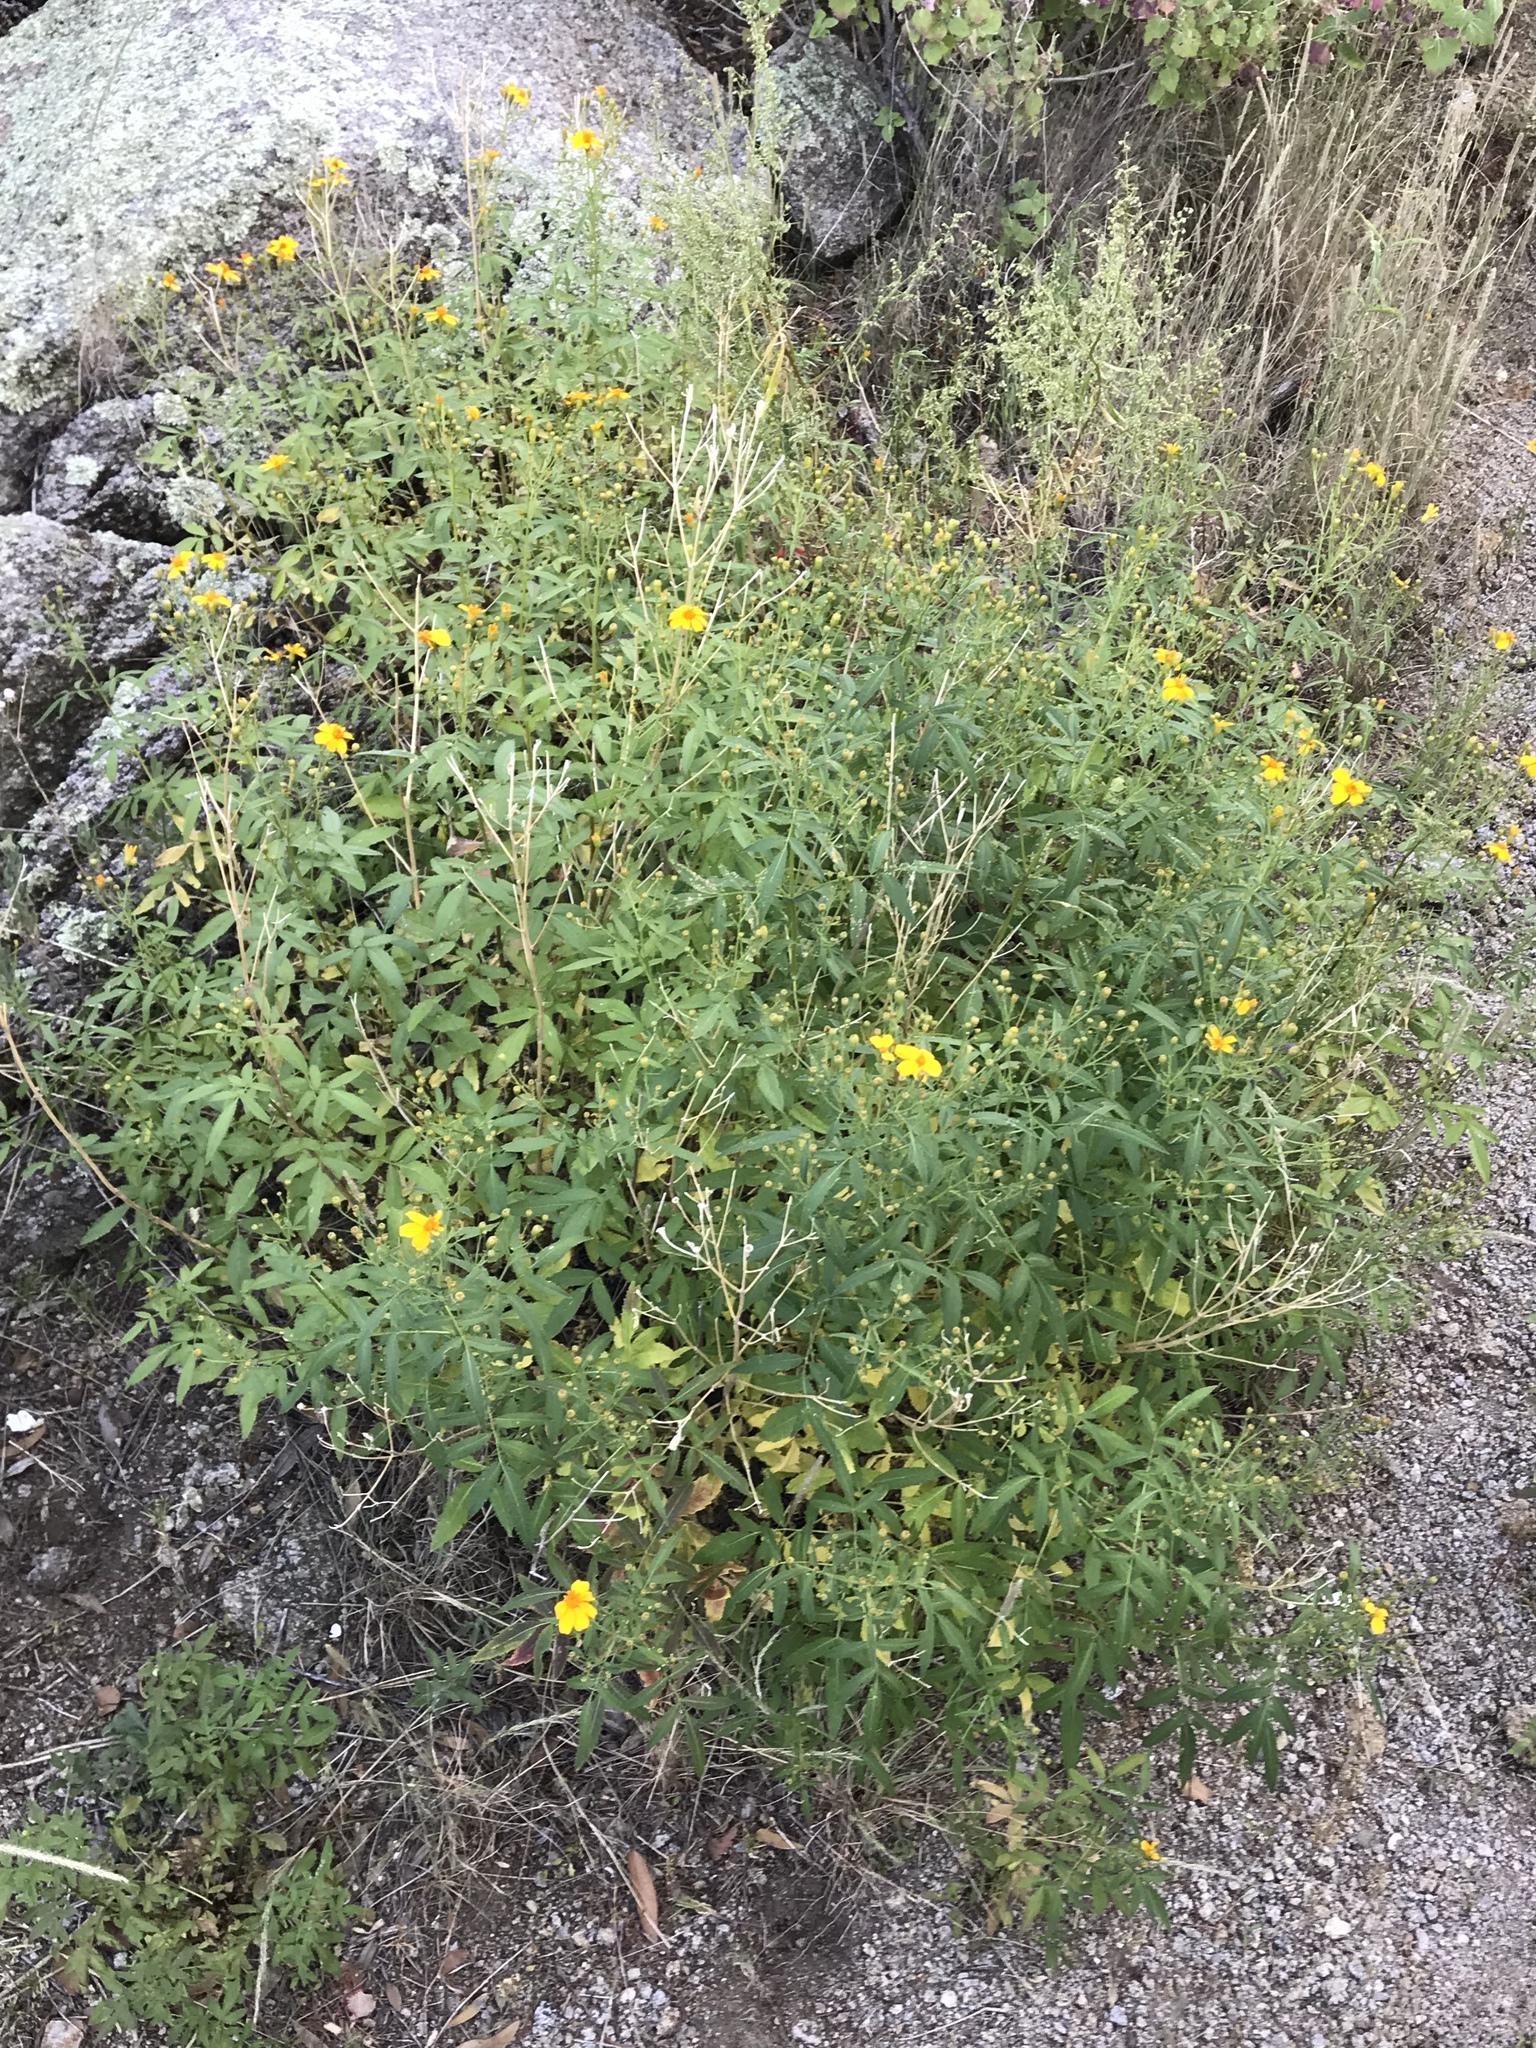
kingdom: Plantae
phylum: Tracheophyta
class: Magnoliopsida
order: Asterales
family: Asteraceae
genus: Tagetes
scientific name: Tagetes lemmonii
